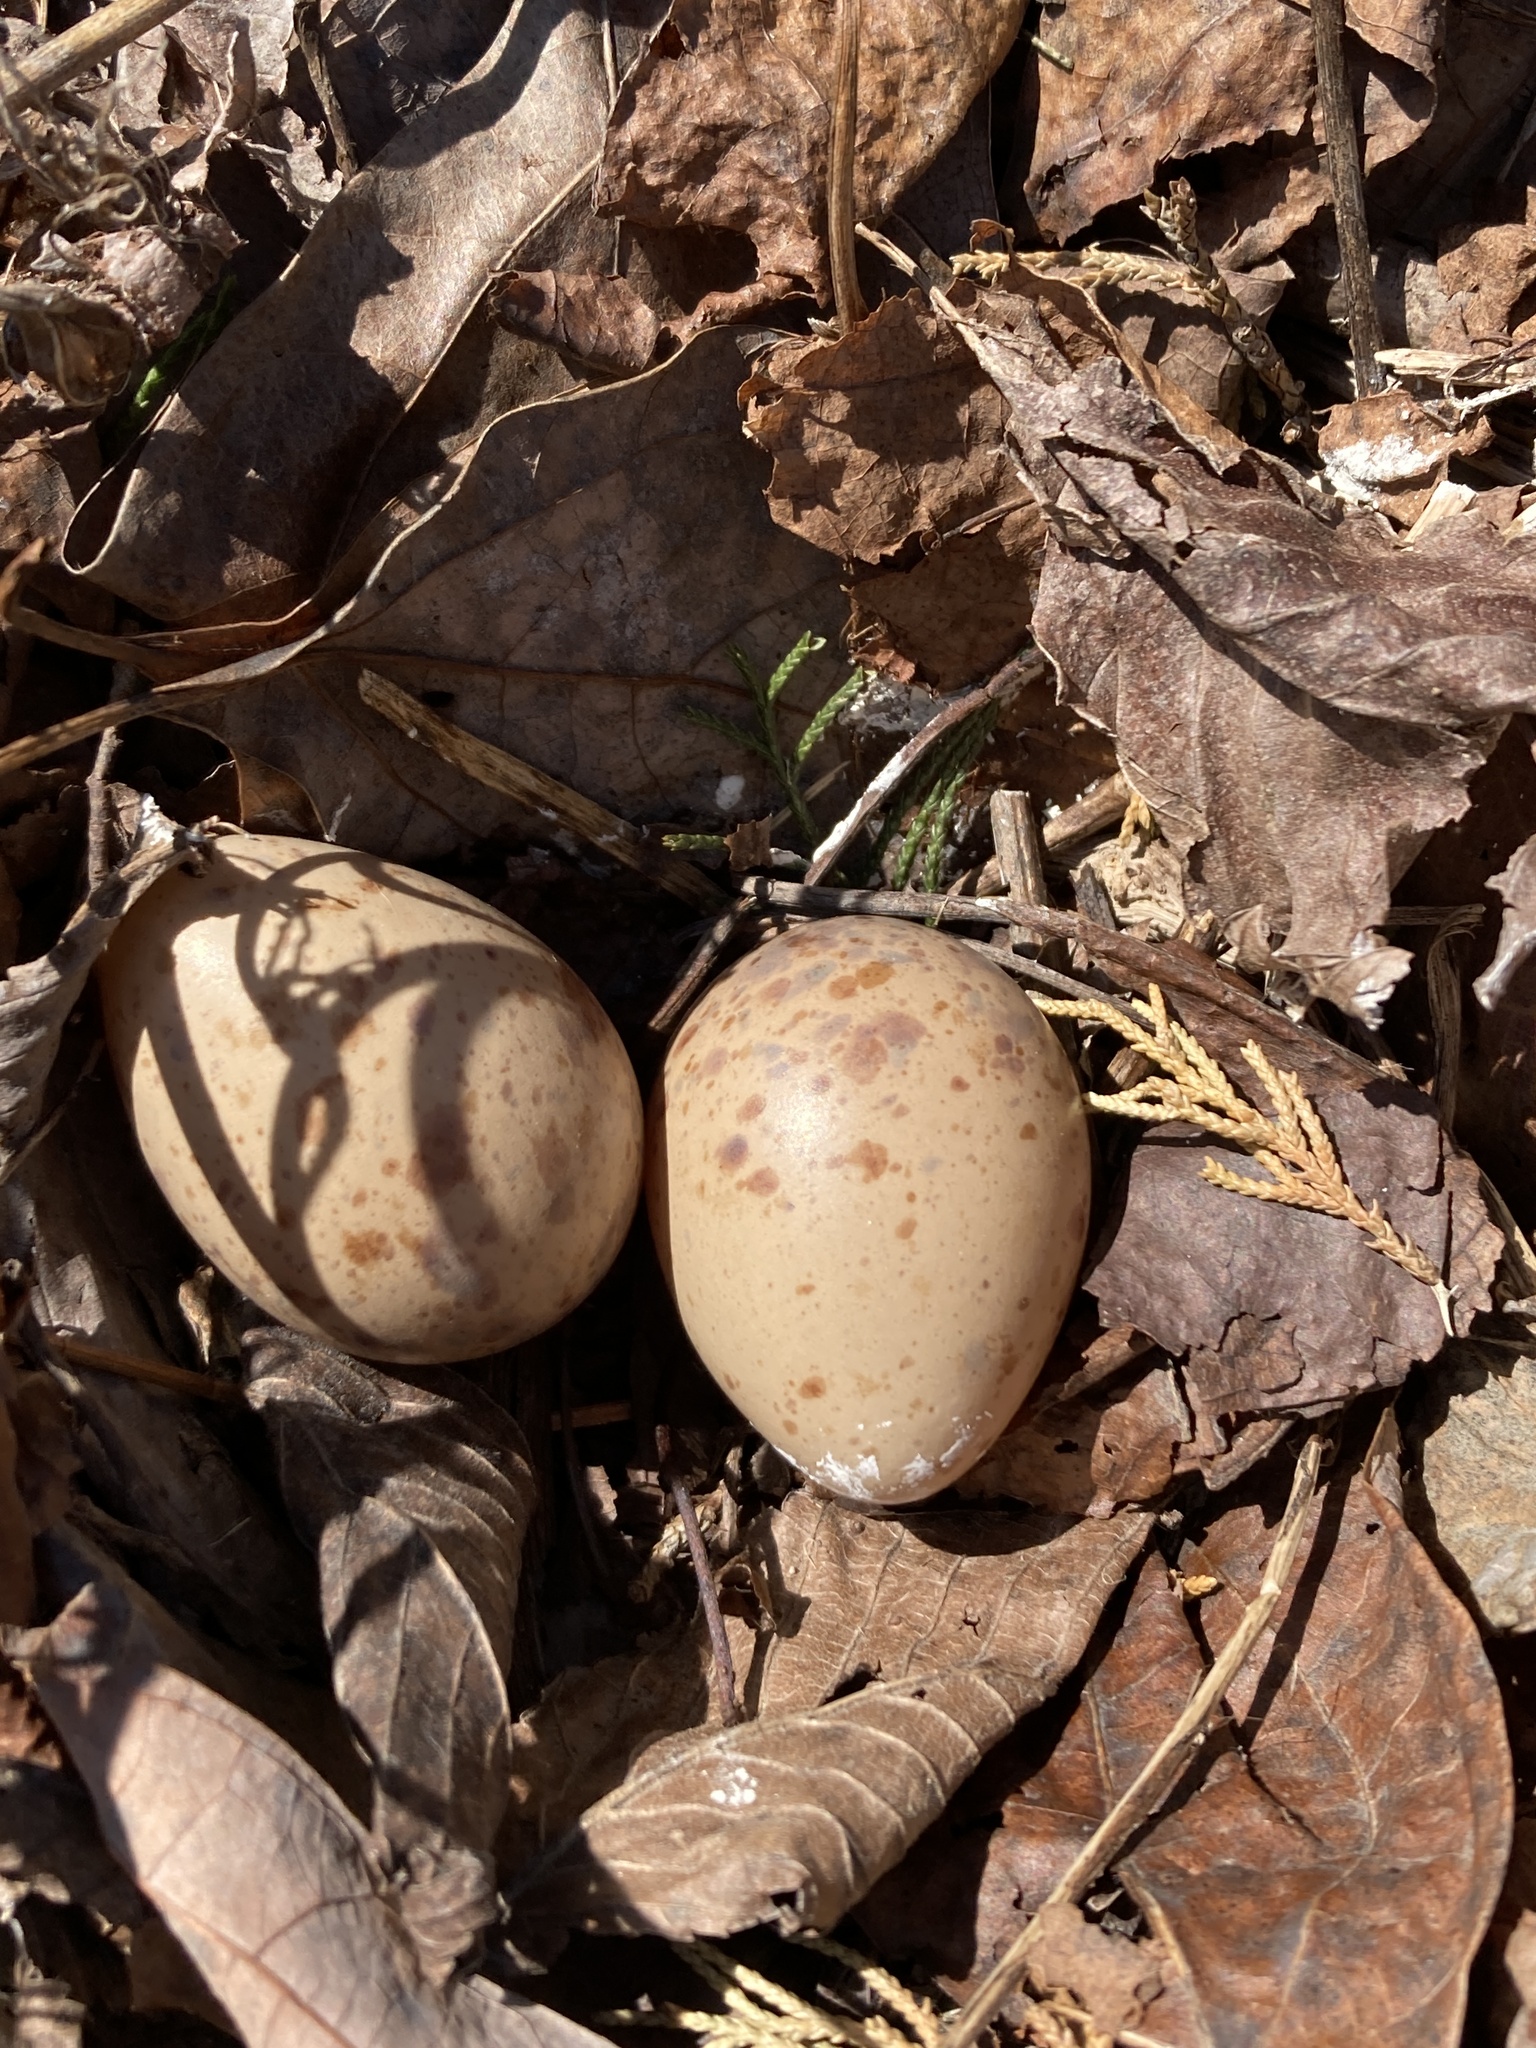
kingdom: Animalia
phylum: Chordata
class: Aves
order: Charadriiformes
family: Scolopacidae
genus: Scolopax
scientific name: Scolopax minor
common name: American woodcock
